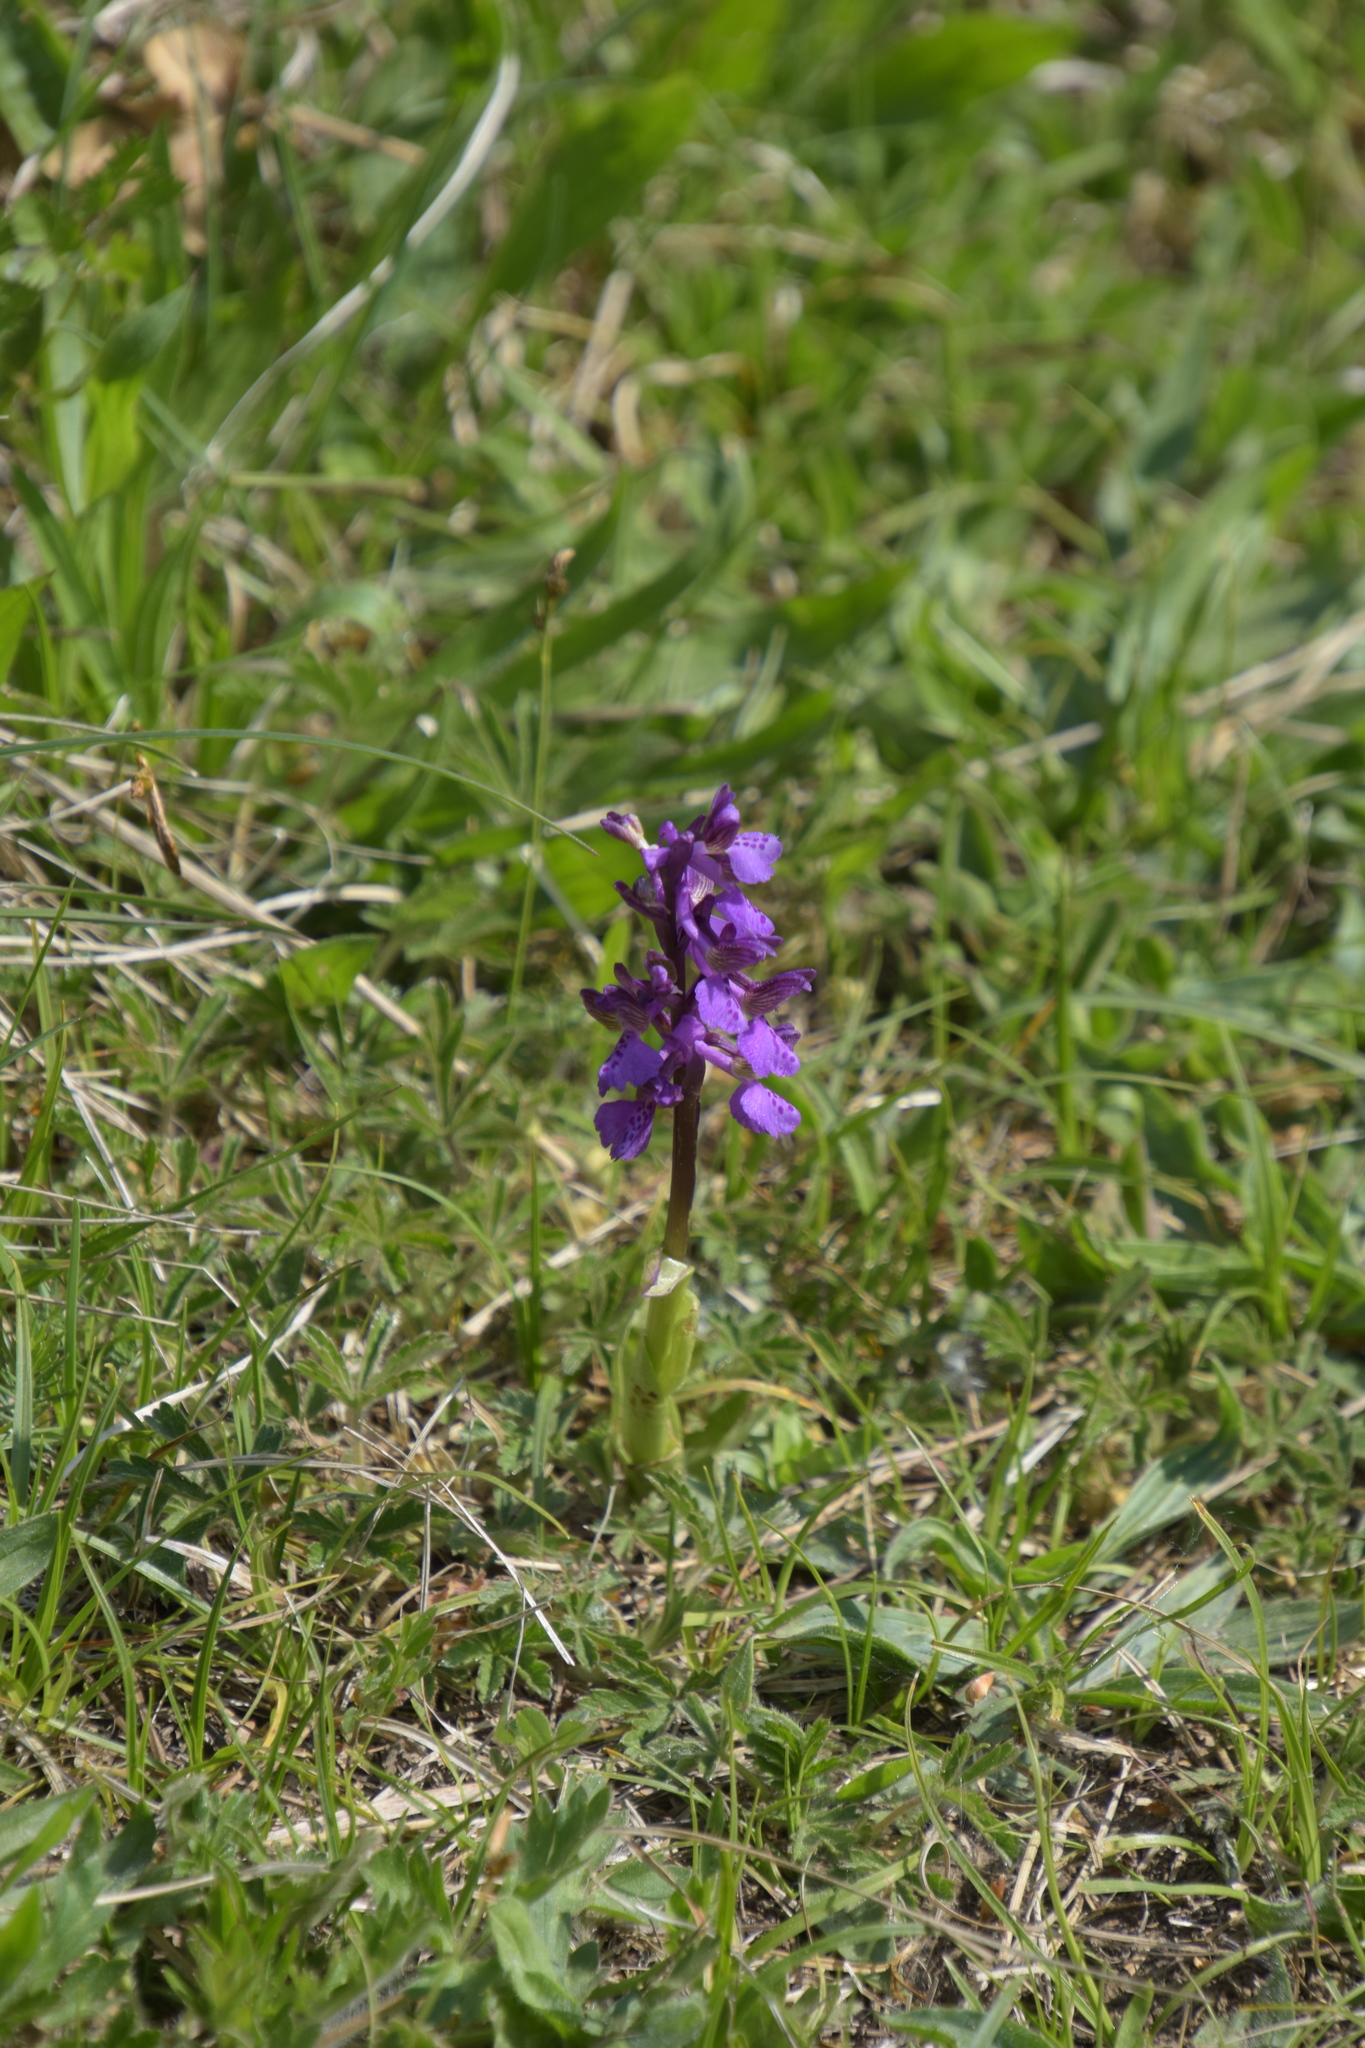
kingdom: Plantae
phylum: Tracheophyta
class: Liliopsida
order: Asparagales
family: Orchidaceae
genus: Anacamptis
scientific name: Anacamptis morio
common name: Green-winged orchid
